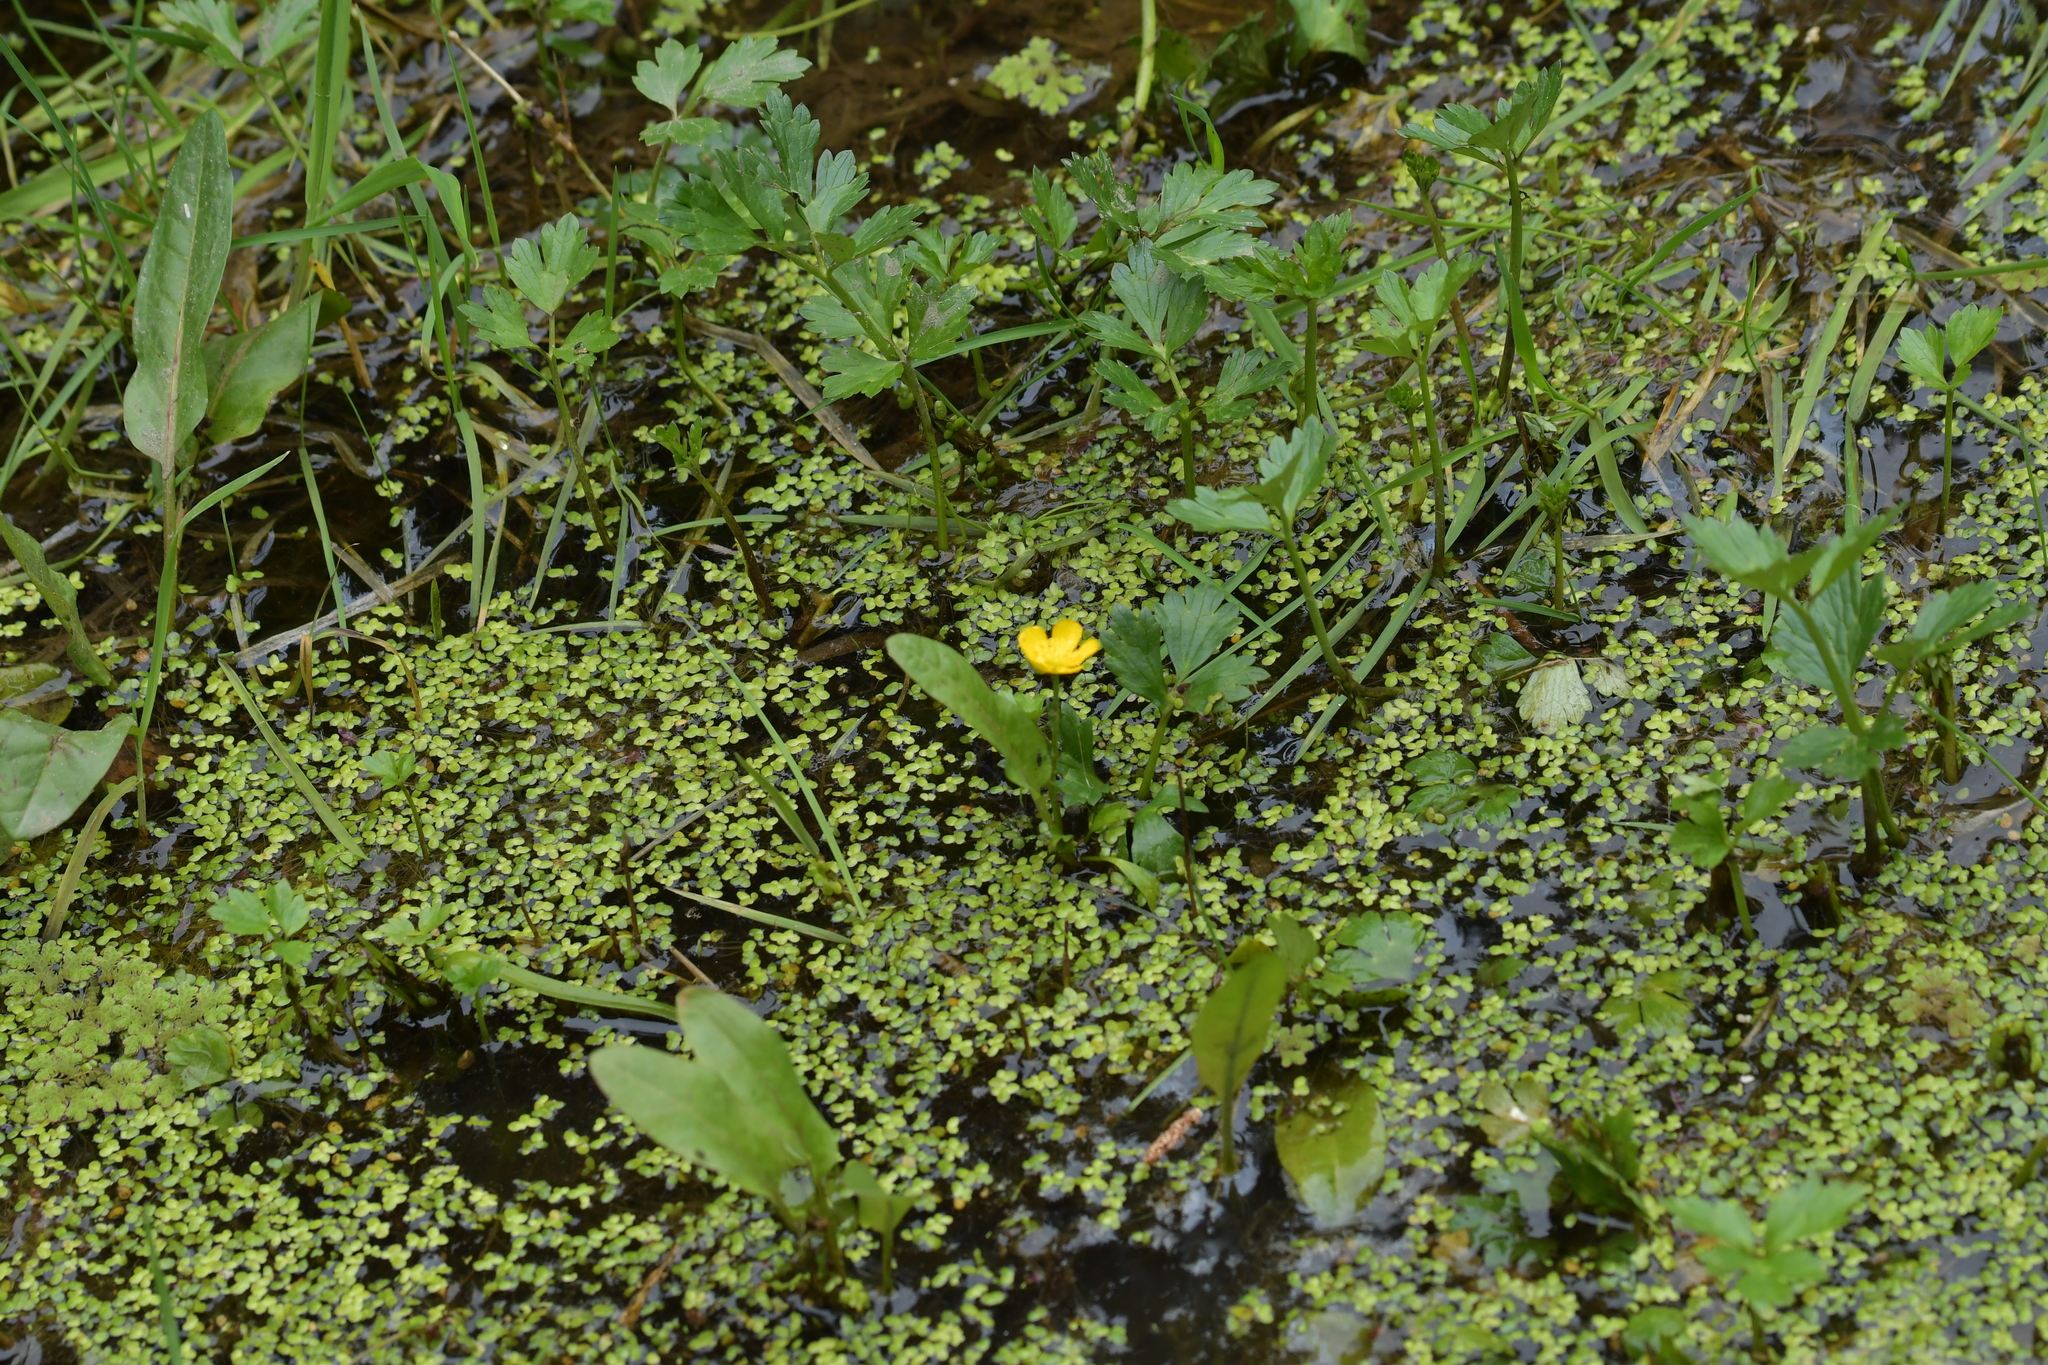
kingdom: Plantae
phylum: Tracheophyta
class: Magnoliopsida
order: Ranunculales
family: Ranunculaceae
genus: Ranunculus
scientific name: Ranunculus repens
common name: Creeping buttercup
